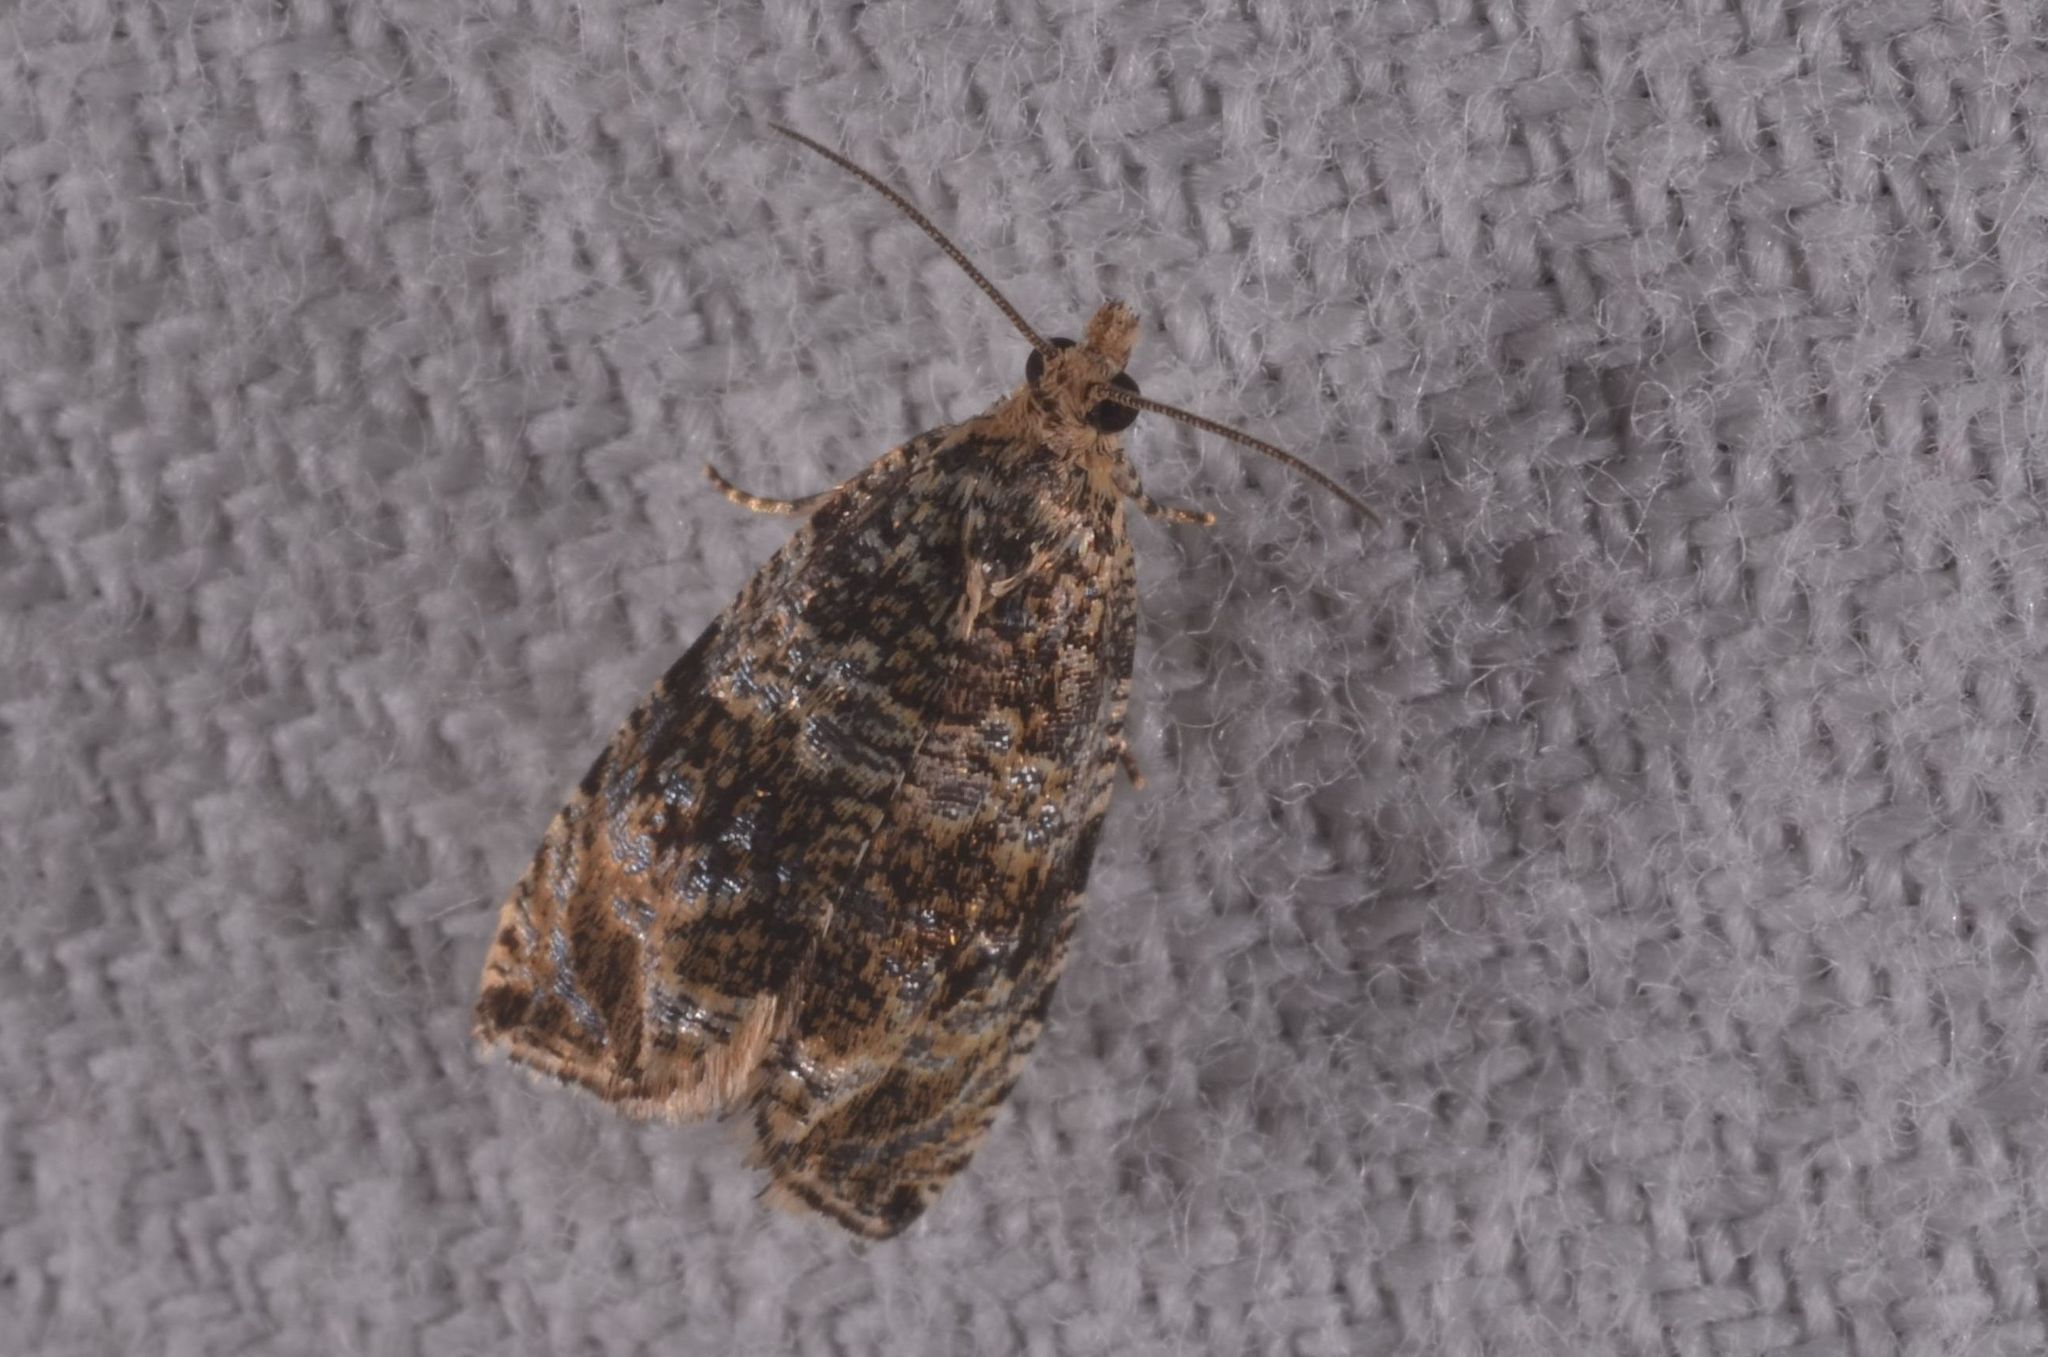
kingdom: Animalia
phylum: Arthropoda
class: Insecta
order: Lepidoptera
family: Tortricidae
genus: Syricoris
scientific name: Syricoris lacunana
